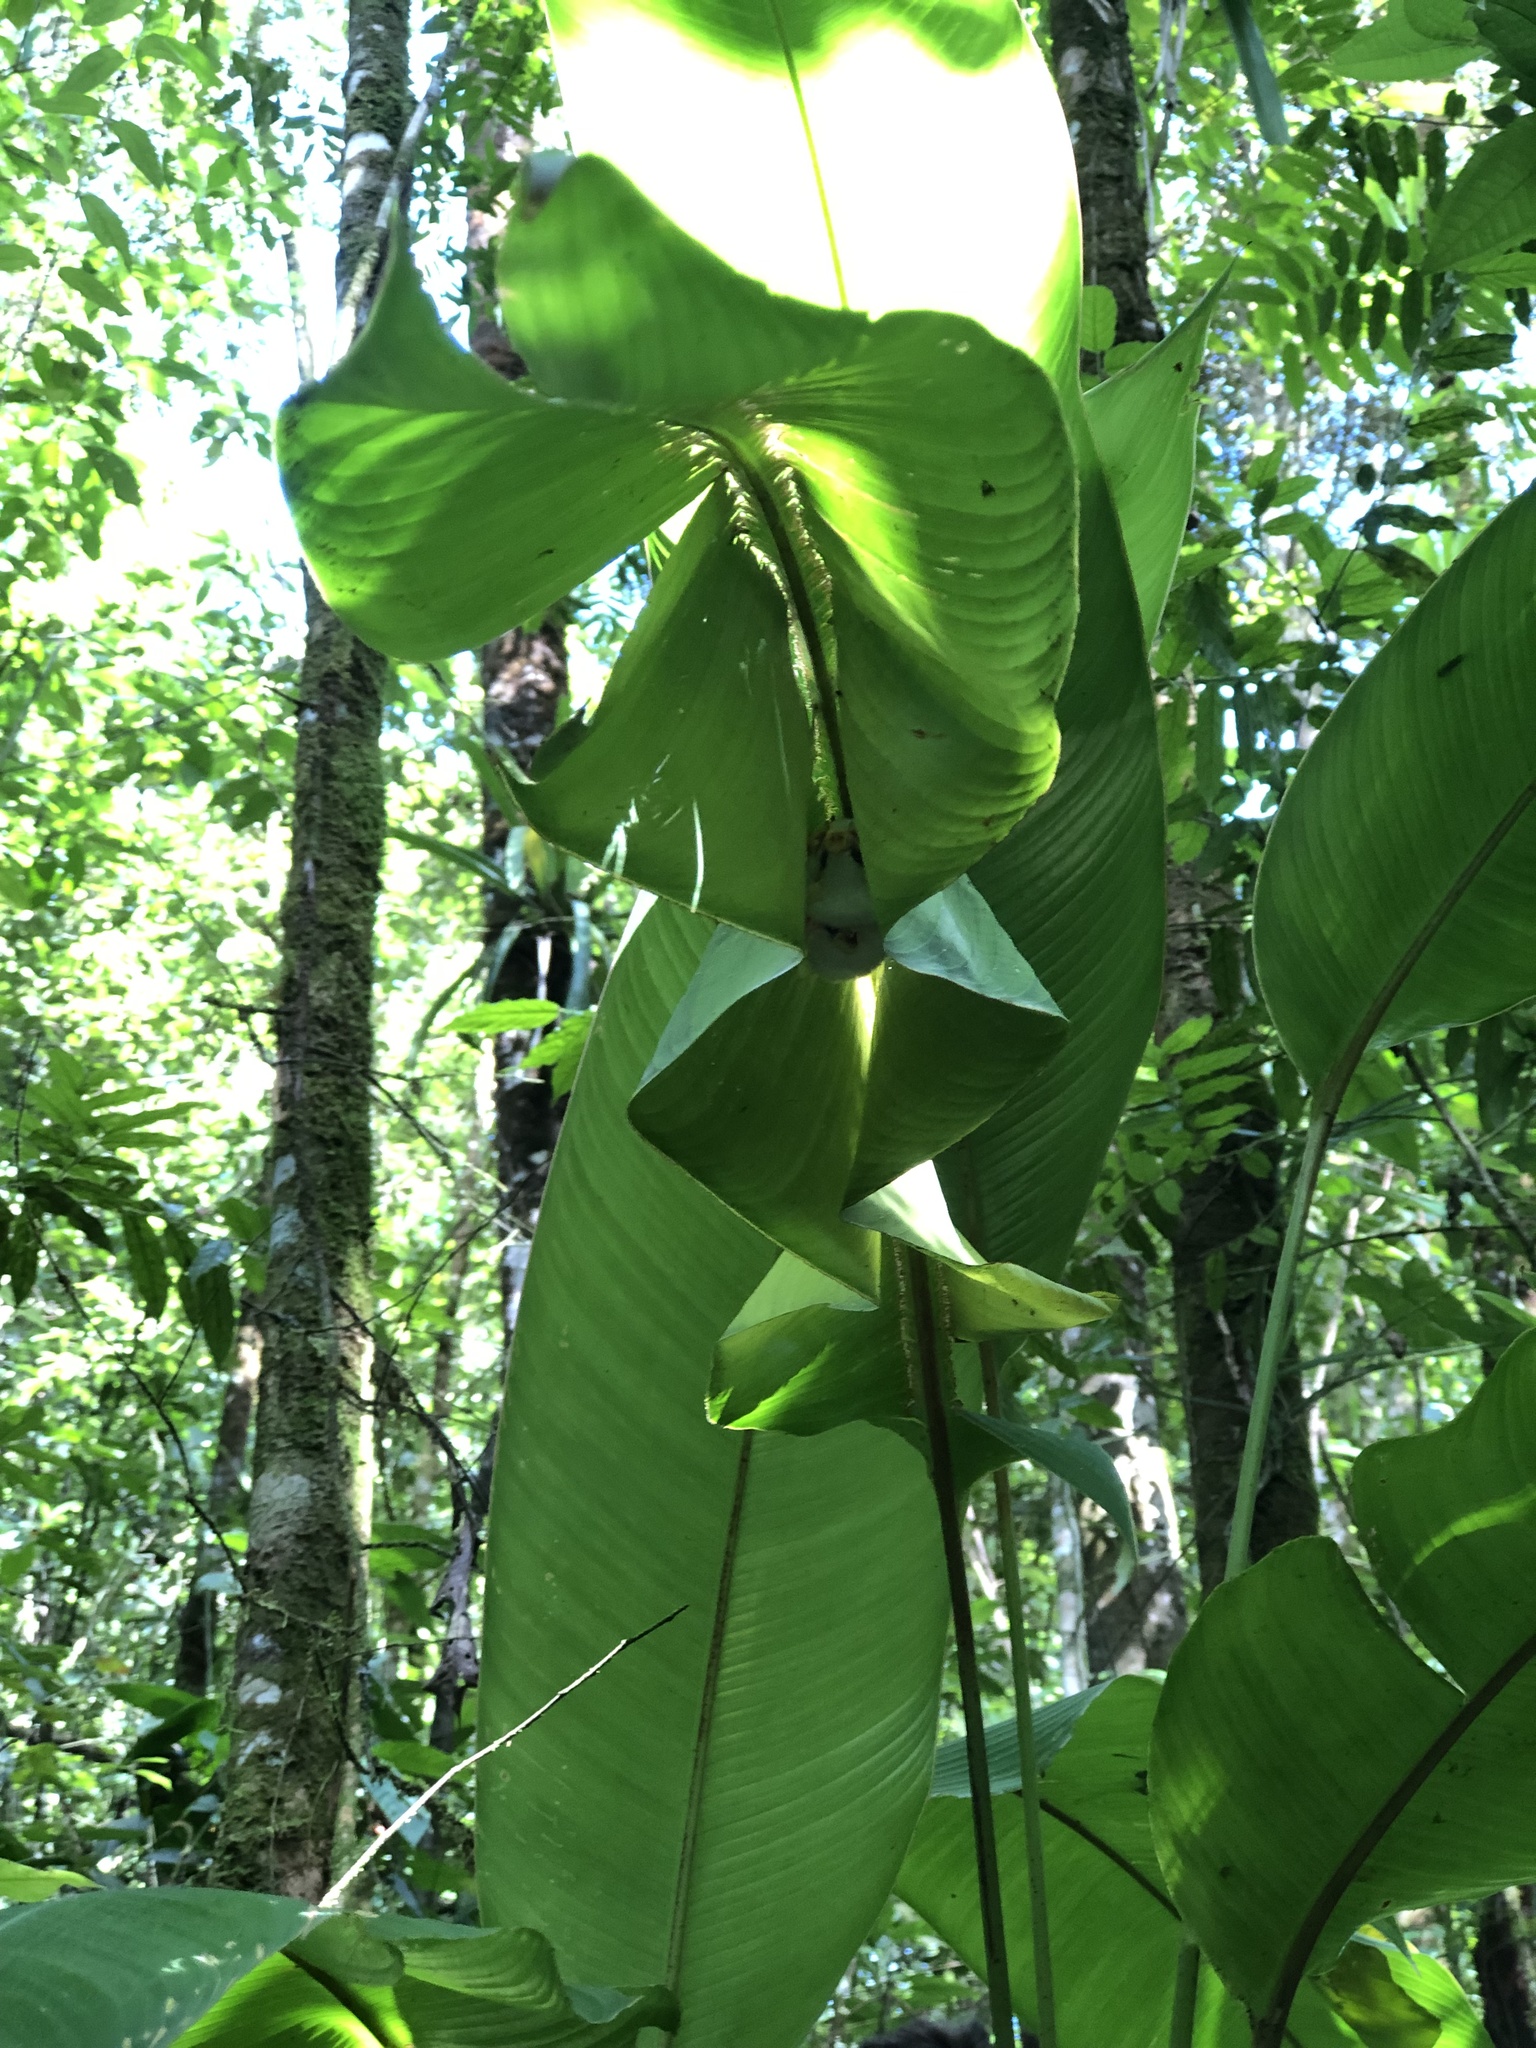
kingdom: Animalia
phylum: Chordata
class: Mammalia
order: Chiroptera
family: Phyllostomidae
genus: Ectophylla
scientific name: Ectophylla alba
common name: Honduran white bat
